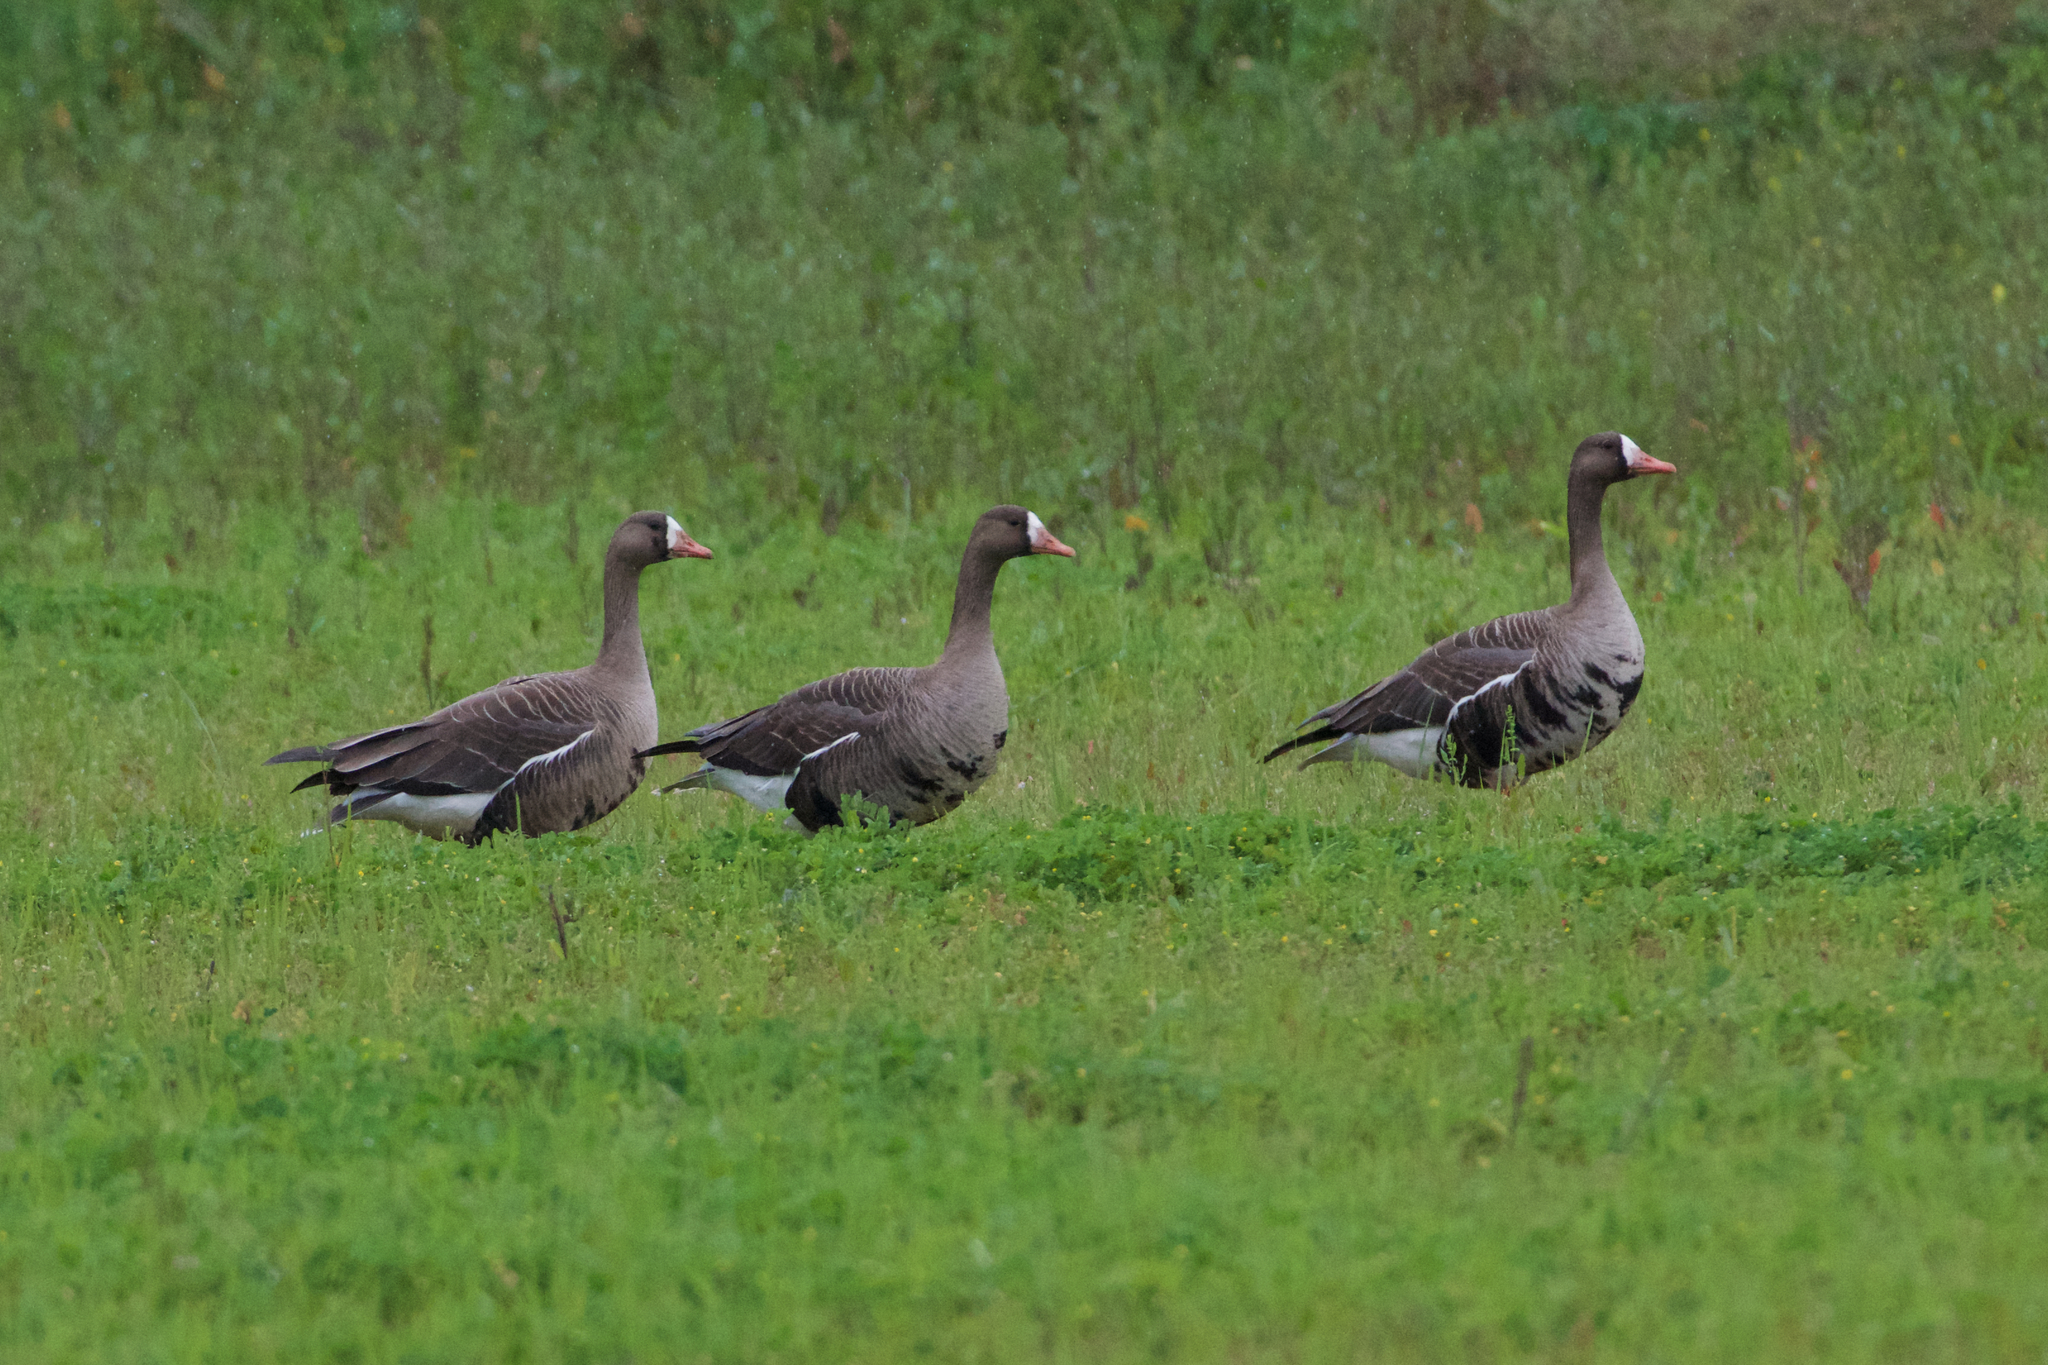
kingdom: Animalia
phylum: Chordata
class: Aves
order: Anseriformes
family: Anatidae
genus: Anser
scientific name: Anser albifrons
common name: Greater white-fronted goose
